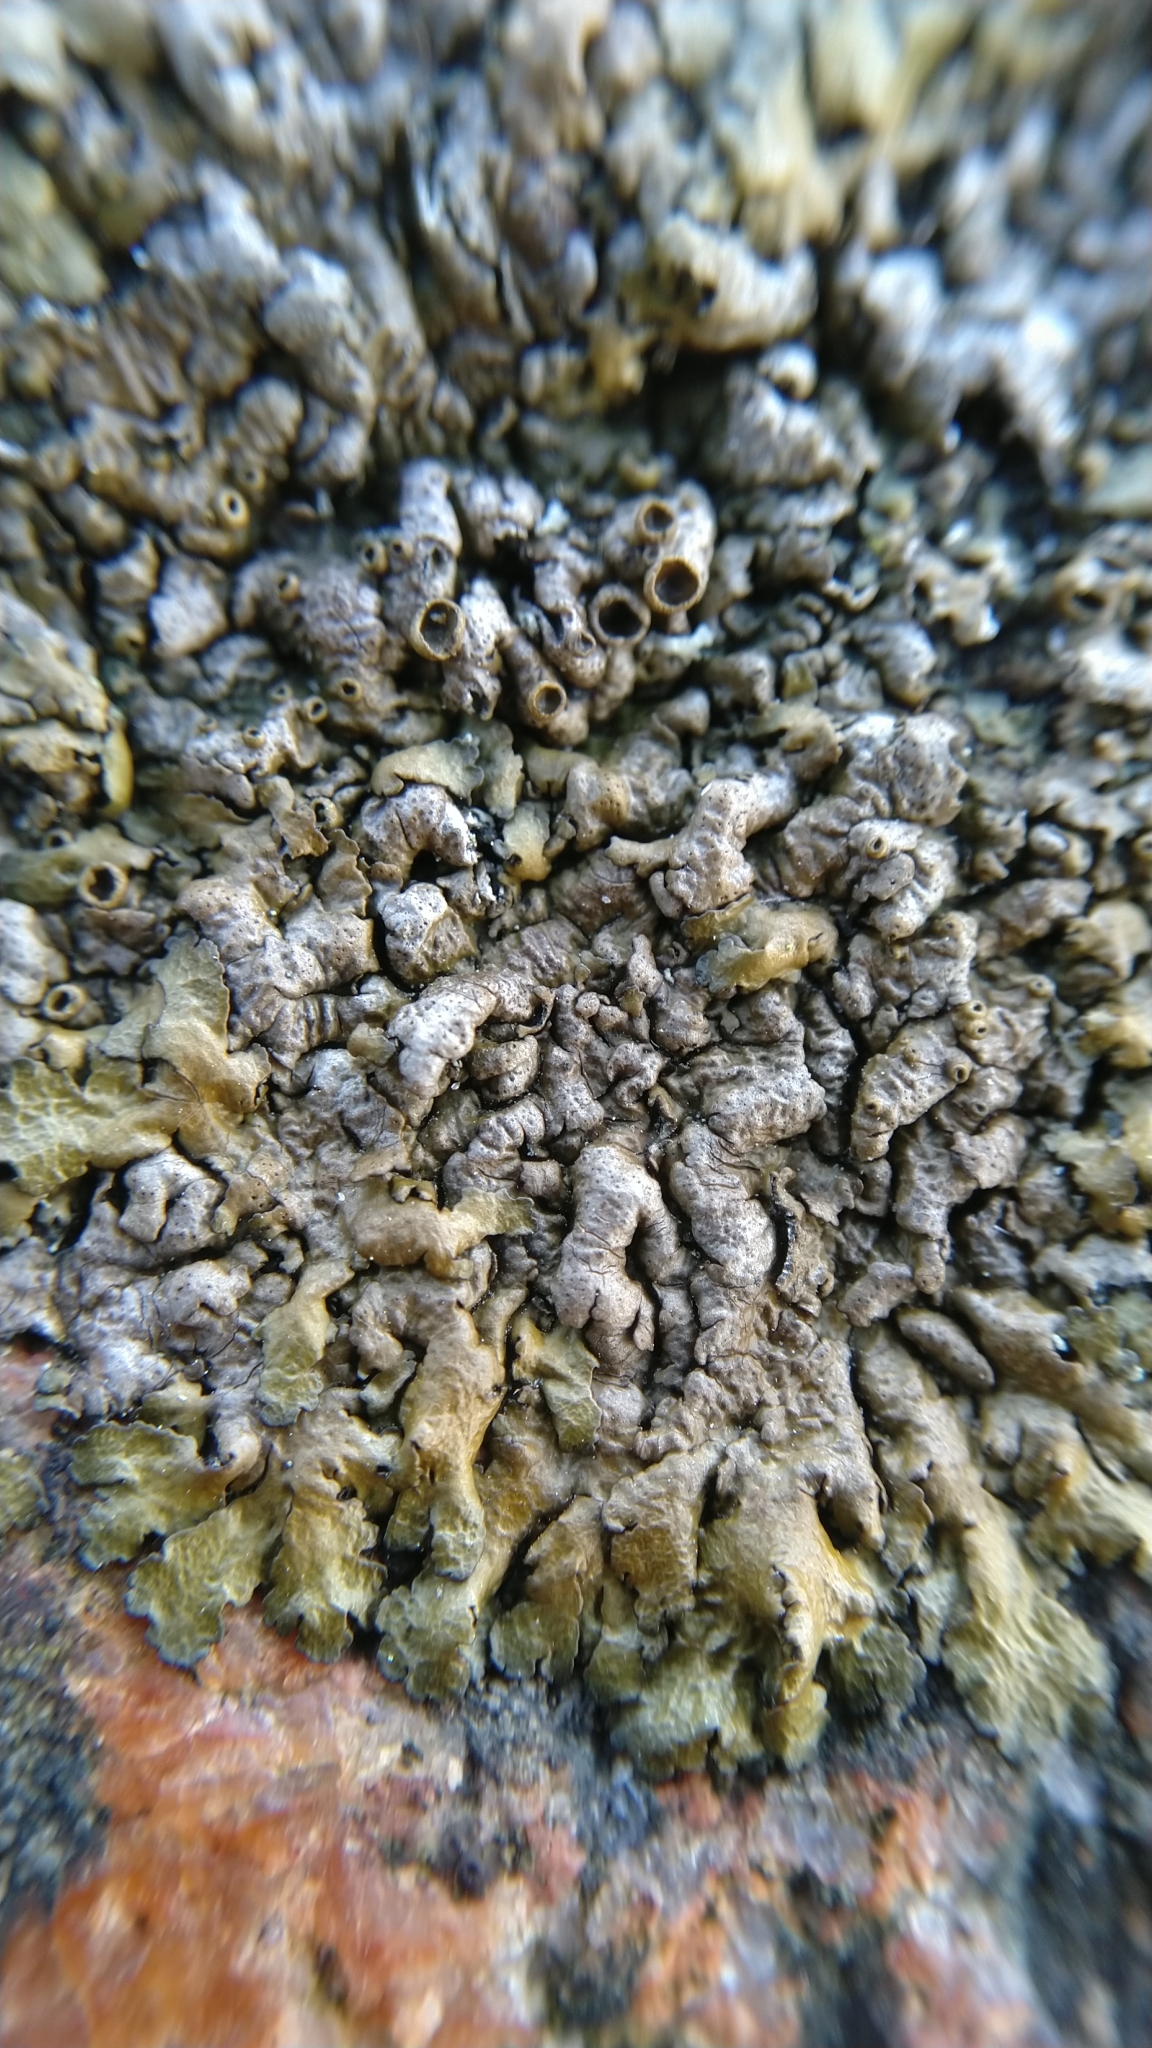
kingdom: Fungi
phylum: Ascomycota
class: Lecanoromycetes
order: Lecanorales
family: Parmeliaceae
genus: Xanthoparmelia
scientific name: Xanthoparmelia pulla
